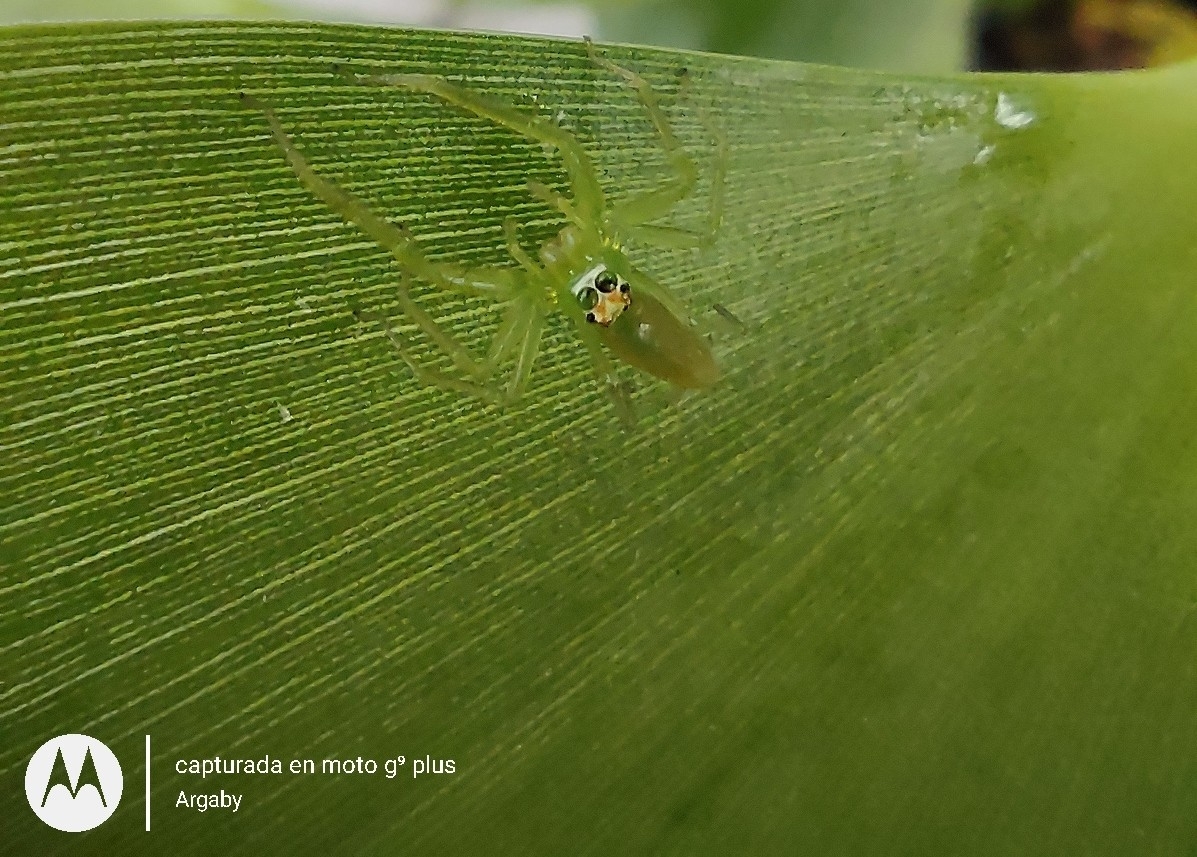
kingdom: Animalia
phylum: Arthropoda
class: Arachnida
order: Araneae
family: Salticidae
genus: Lyssomanes
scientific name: Lyssomanes pauper
